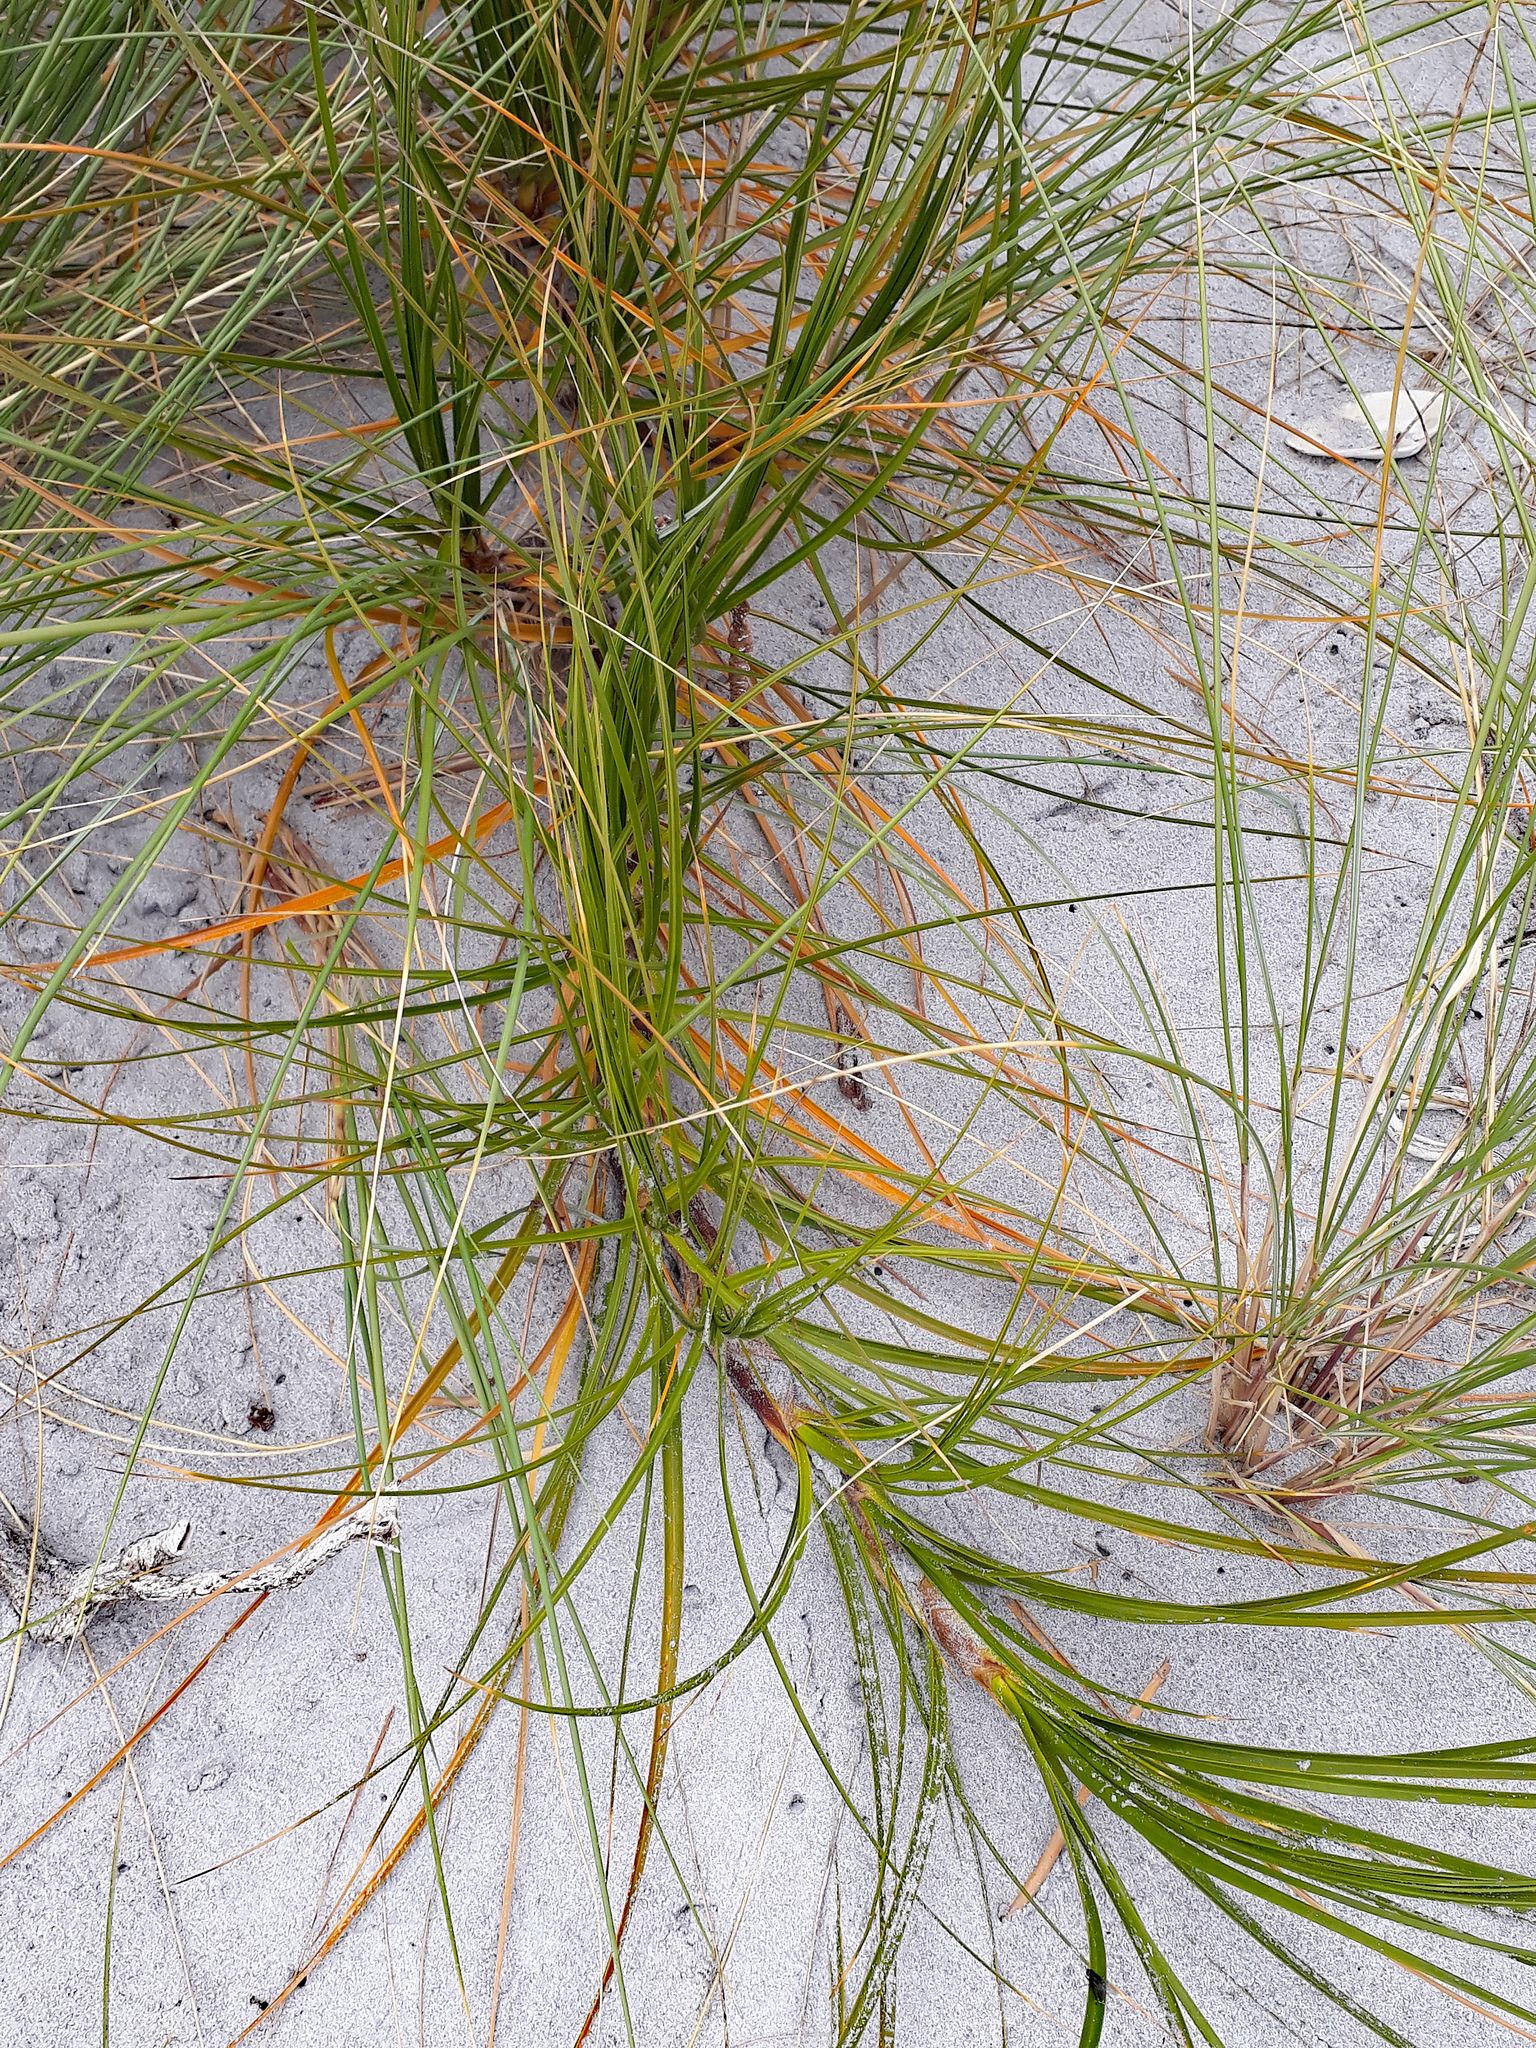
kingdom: Plantae
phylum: Tracheophyta
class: Liliopsida
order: Poales
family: Cyperaceae
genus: Ficinia
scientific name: Ficinia spiralis
